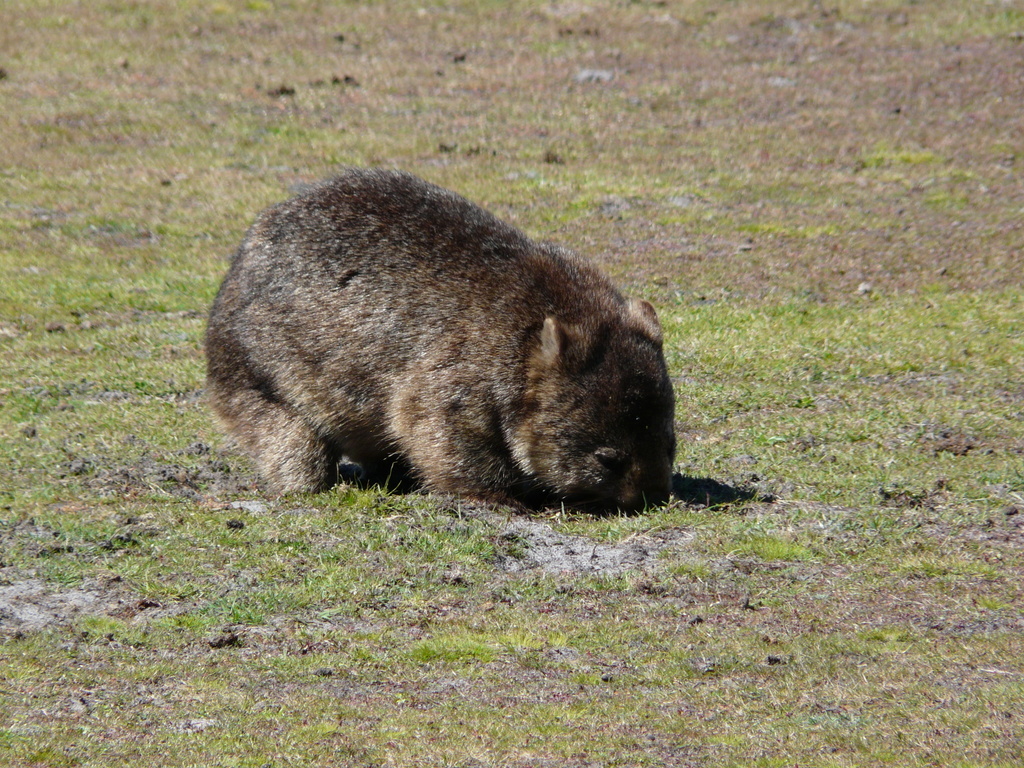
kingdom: Animalia
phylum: Chordata
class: Mammalia
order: Diprotodontia
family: Vombatidae
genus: Vombatus
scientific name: Vombatus ursinus
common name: Common wombat
